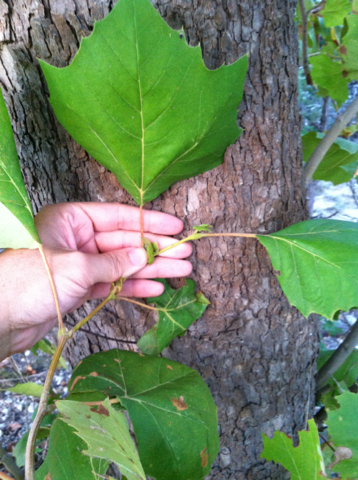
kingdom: Plantae
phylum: Tracheophyta
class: Magnoliopsida
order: Proteales
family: Platanaceae
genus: Platanus
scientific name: Platanus occidentalis
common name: American sycamore
